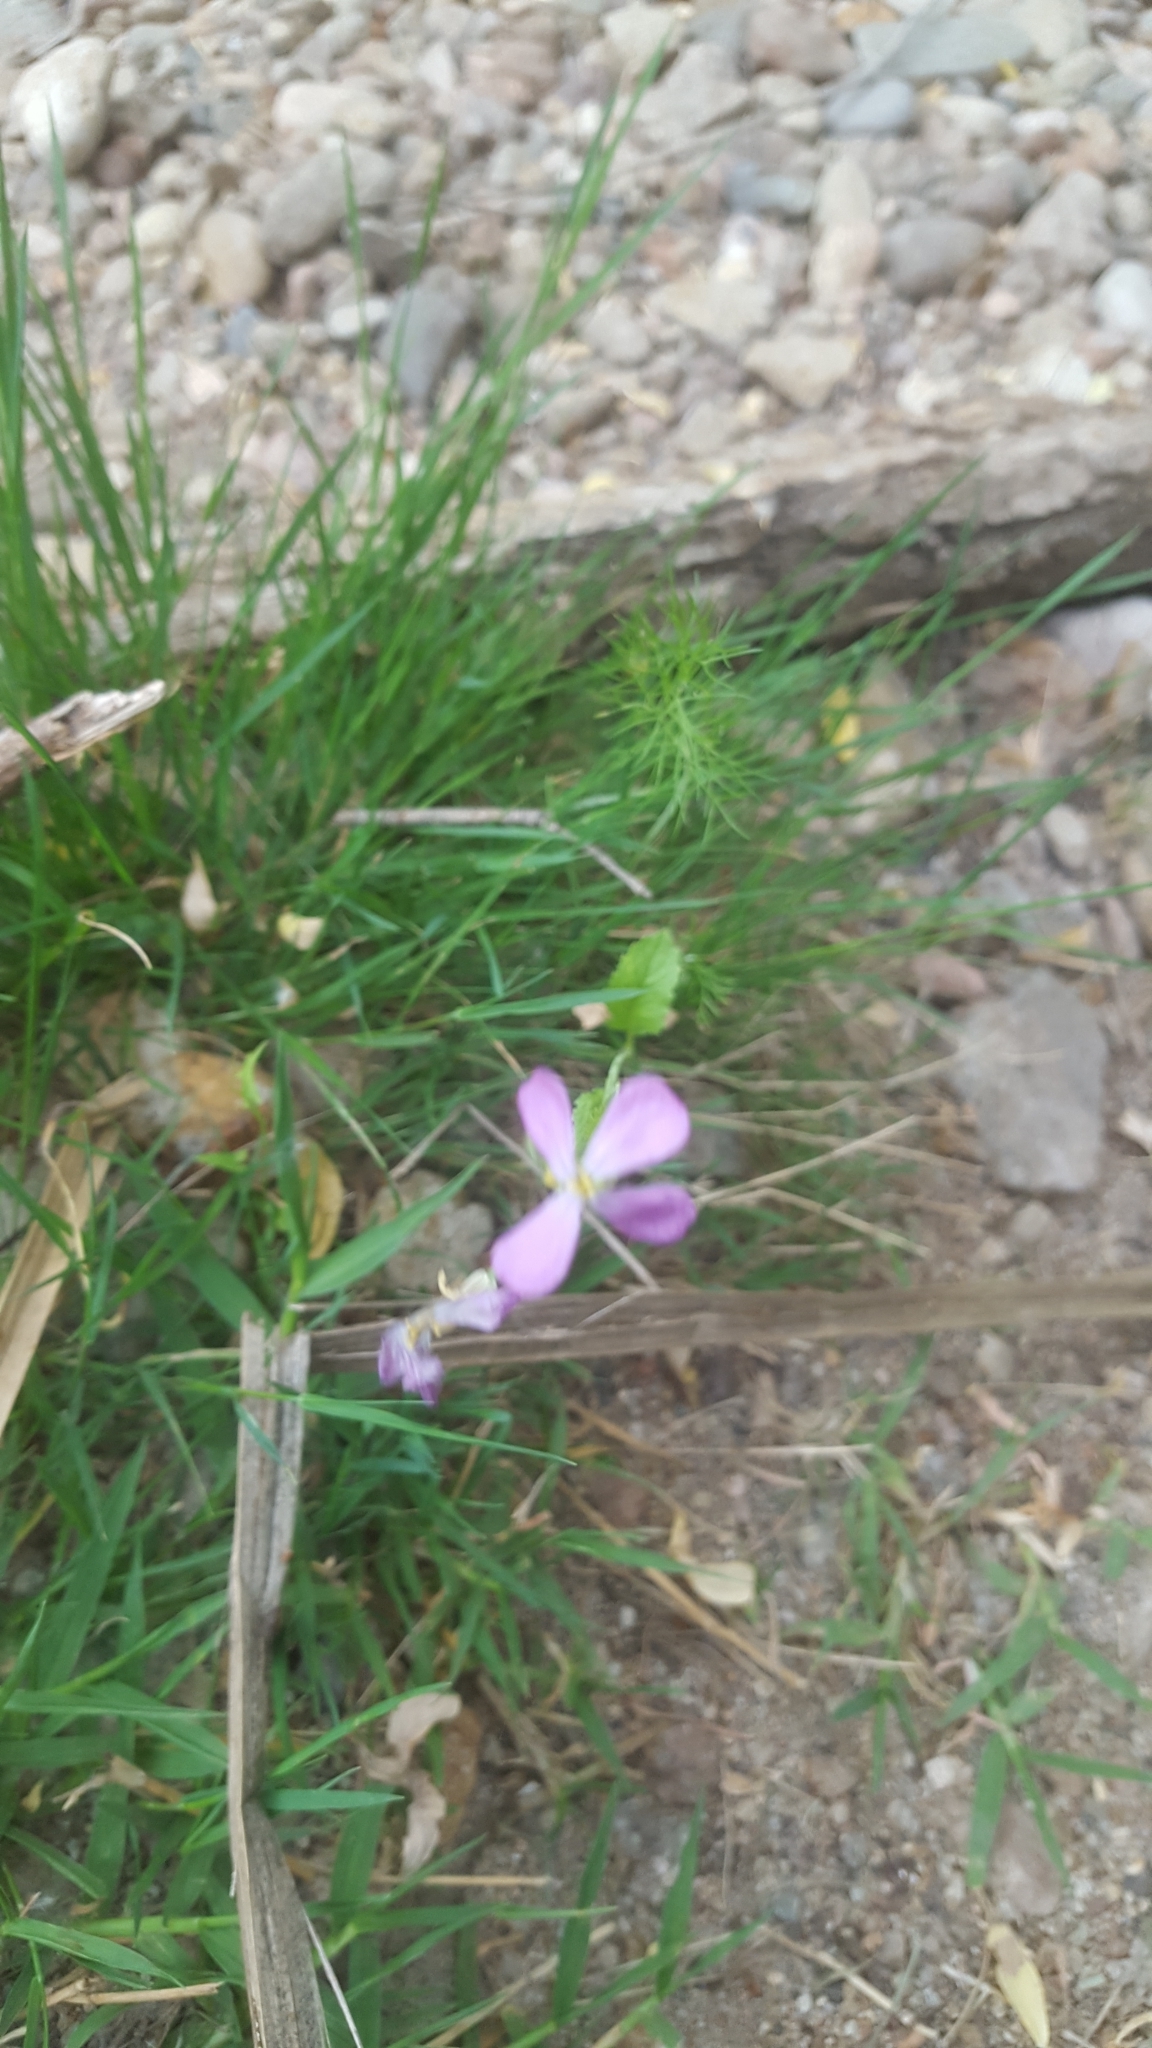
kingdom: Plantae
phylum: Tracheophyta
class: Magnoliopsida
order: Brassicales
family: Brassicaceae
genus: Raphanus
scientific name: Raphanus sativus
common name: Cultivated radish
